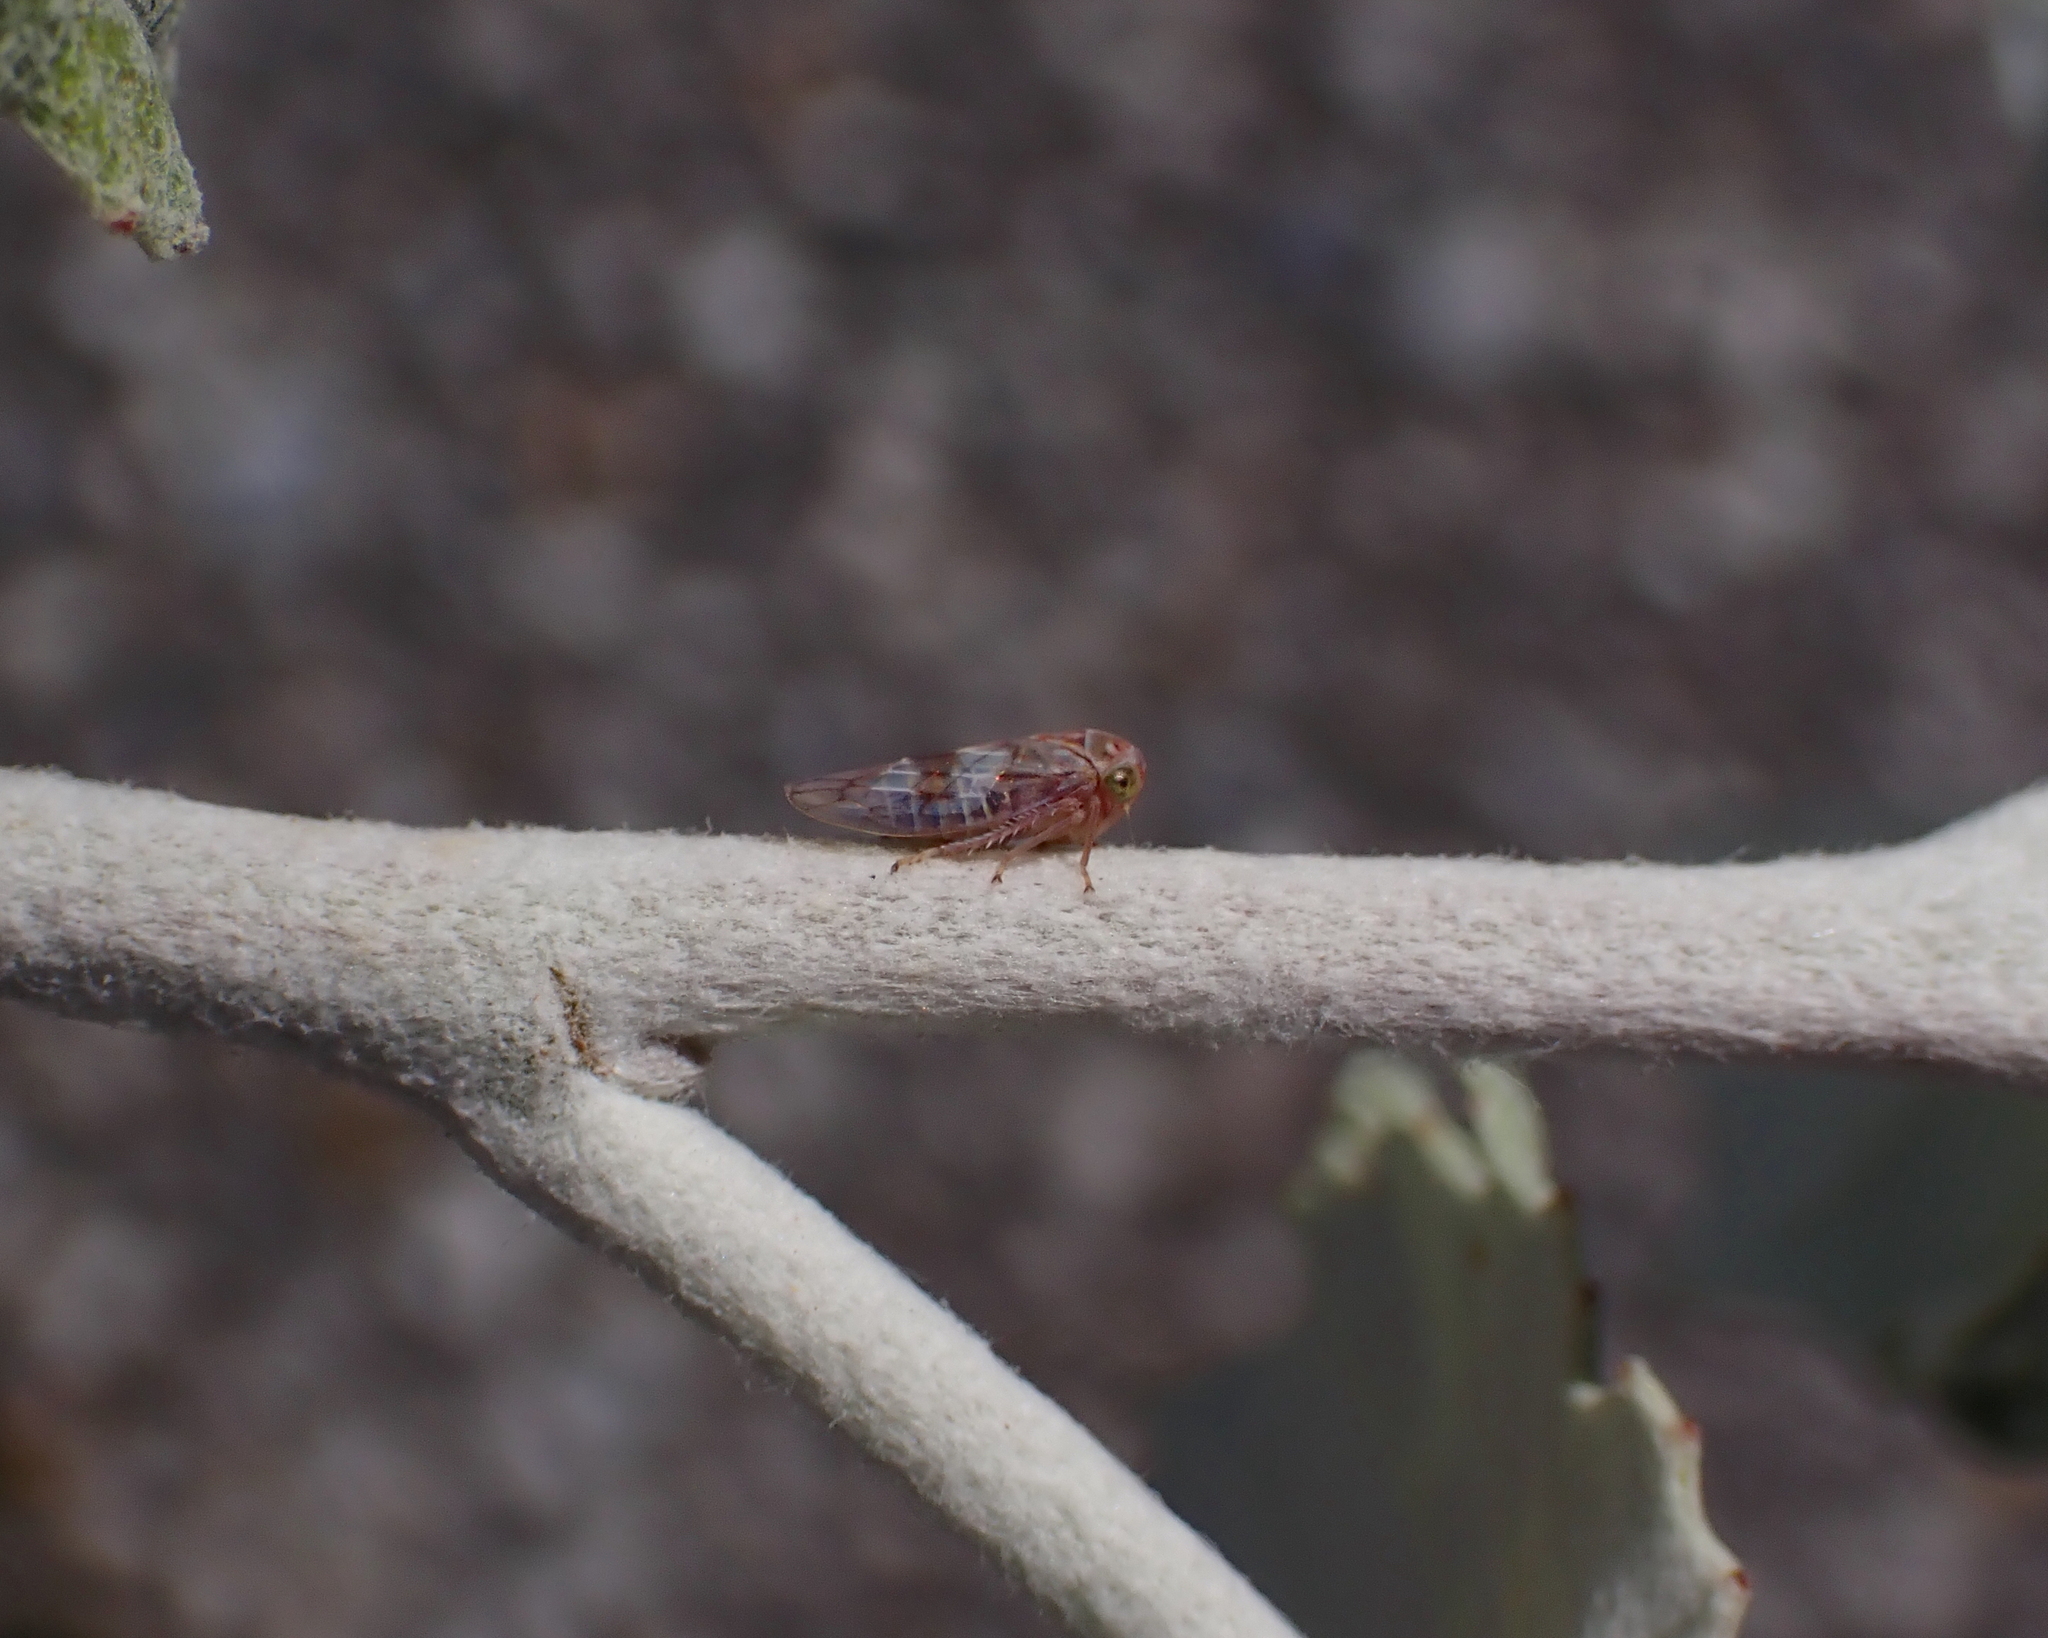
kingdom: Animalia
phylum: Arthropoda
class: Insecta
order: Hemiptera
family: Cicadellidae
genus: Tremulicerus
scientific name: Tremulicerus tremulae
